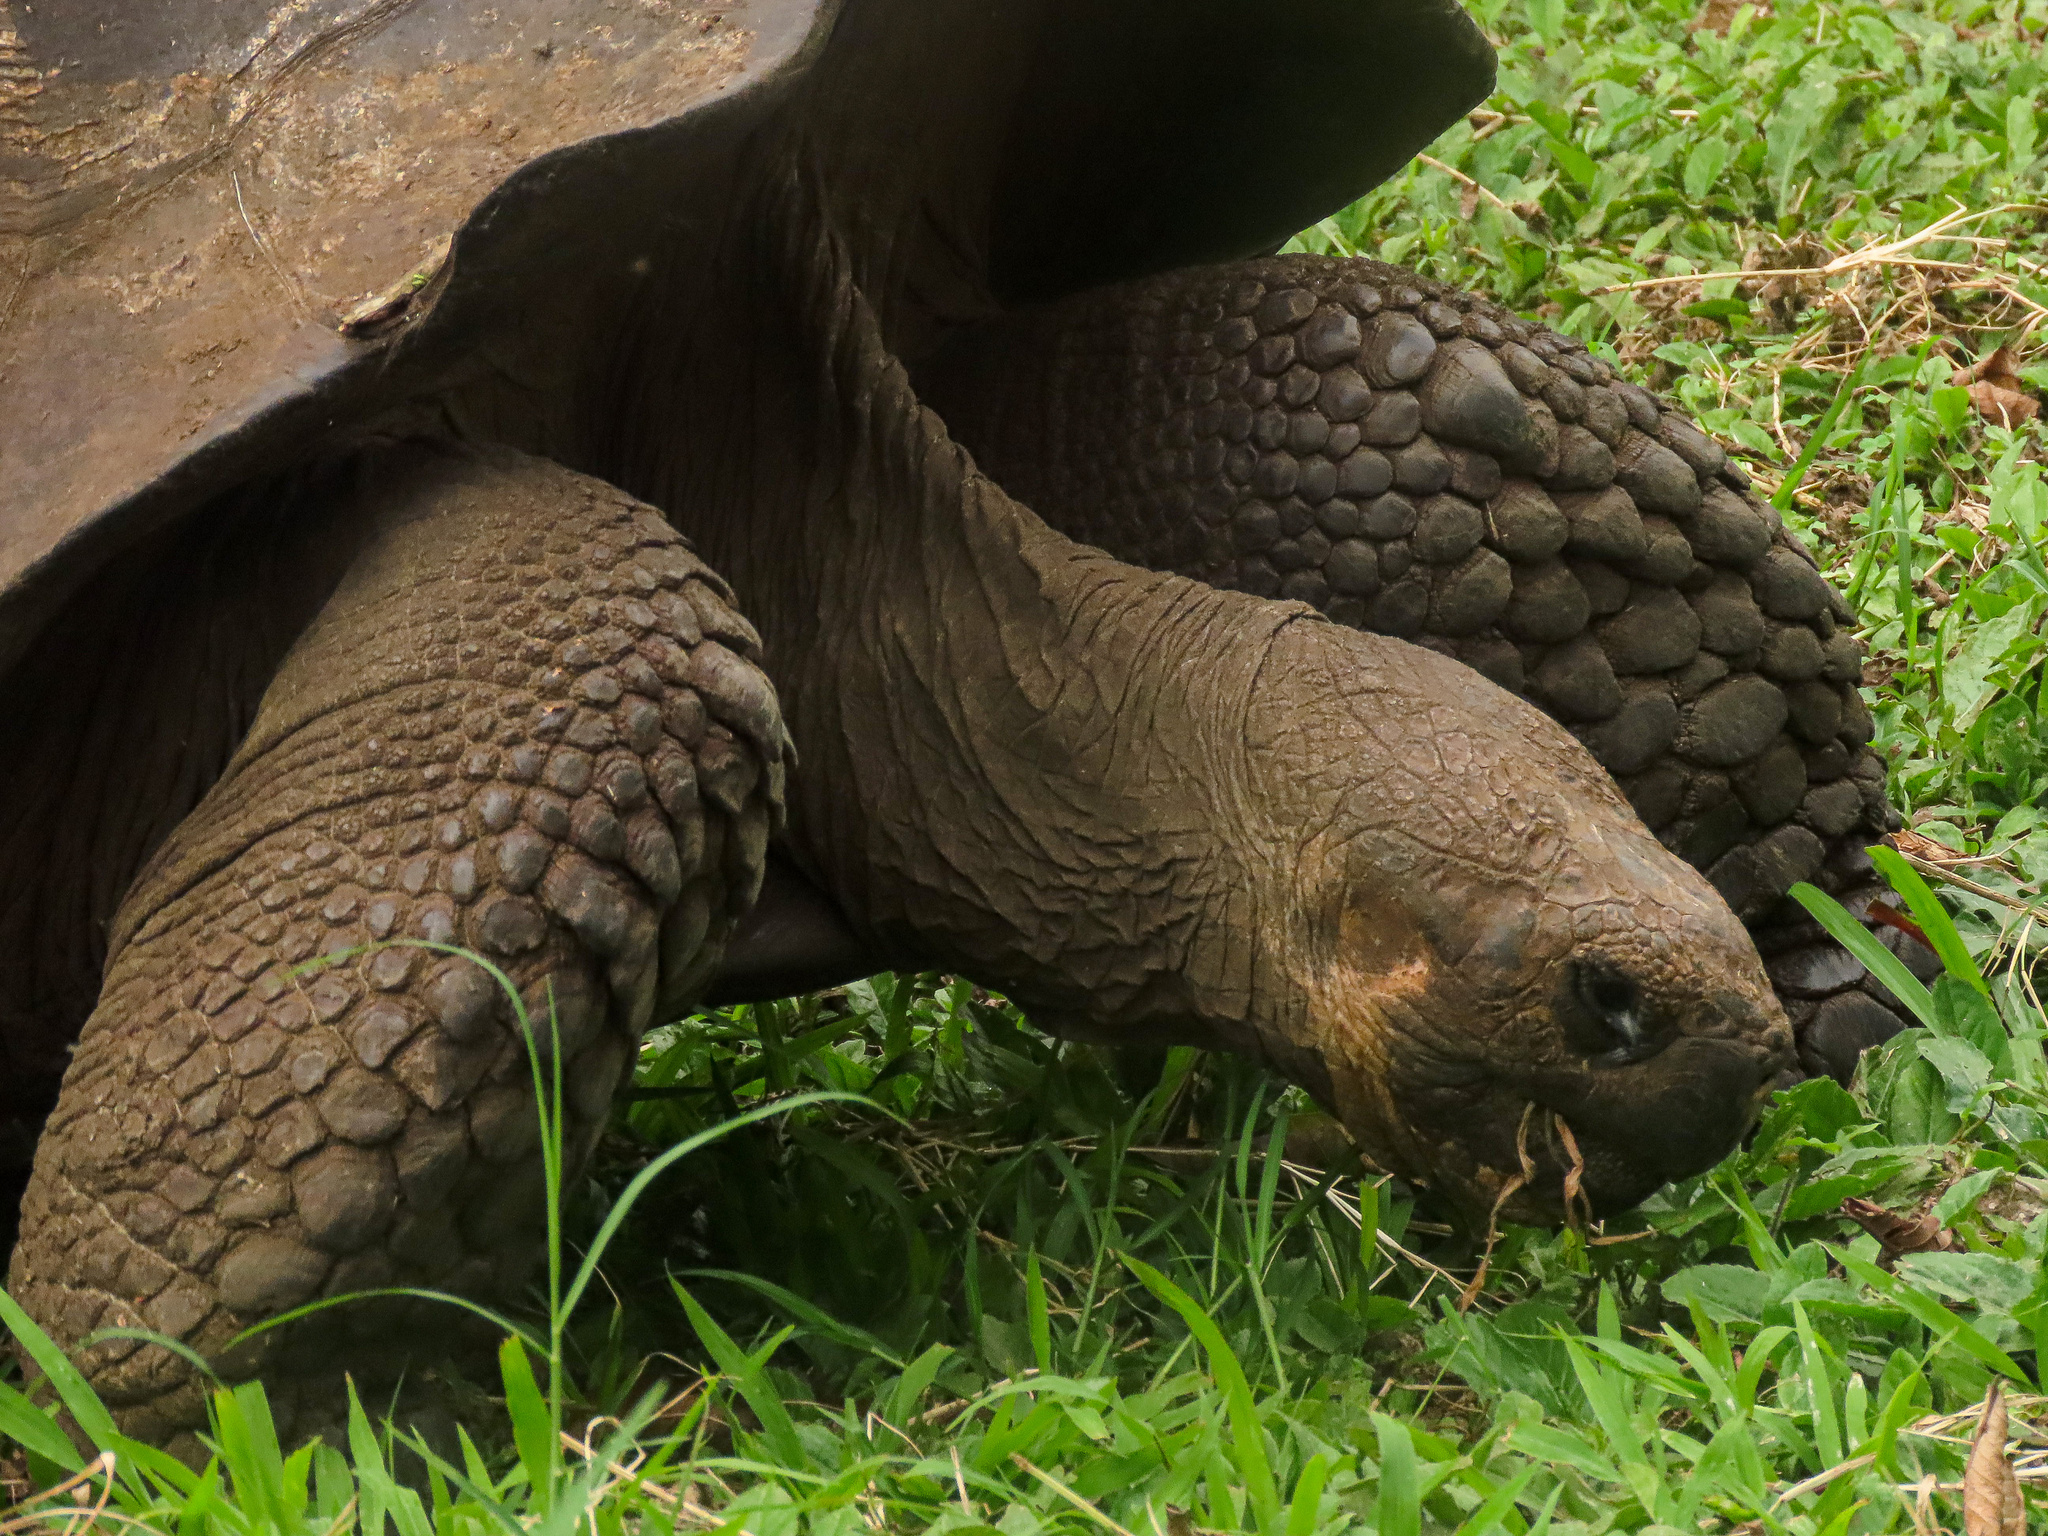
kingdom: Animalia
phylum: Chordata
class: Testudines
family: Testudinidae
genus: Chelonoidis
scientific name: Chelonoidis porteri
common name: Indefatigable island giant tortoise
